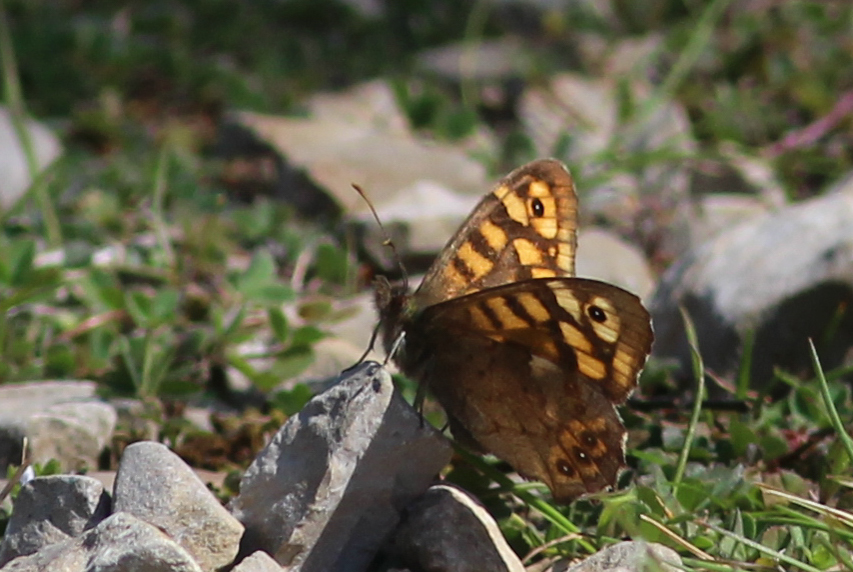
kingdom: Animalia
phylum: Arthropoda
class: Insecta
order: Lepidoptera
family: Nymphalidae
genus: Pararge
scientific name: Pararge aegeria
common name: Speckled wood
